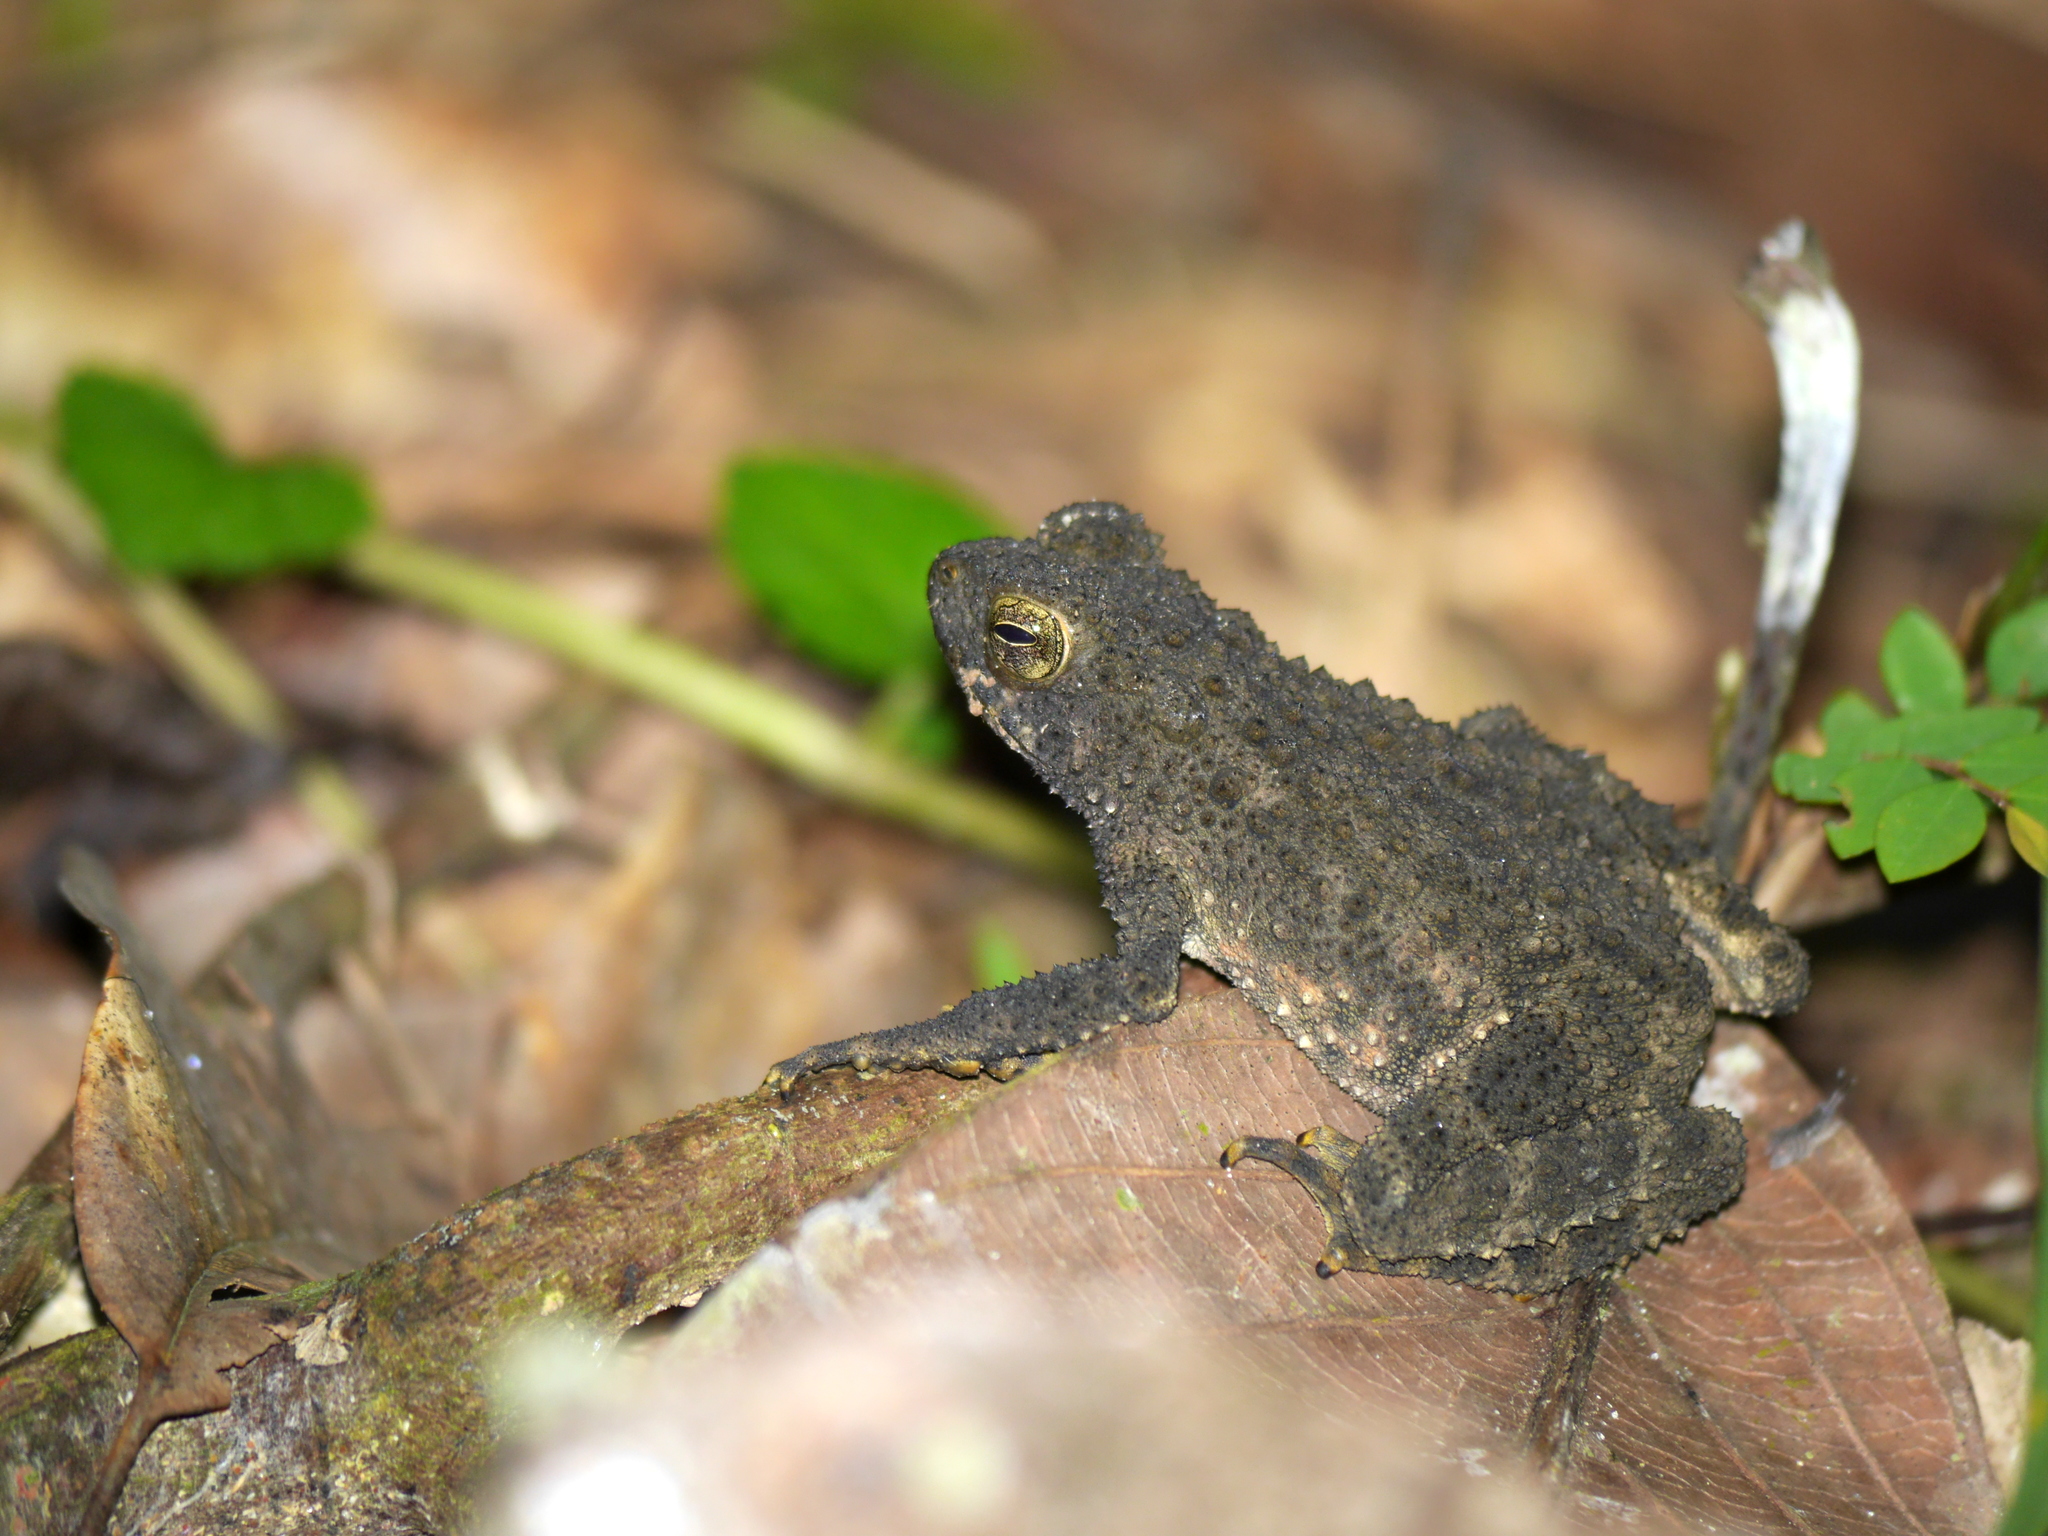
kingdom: Animalia
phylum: Chordata
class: Amphibia
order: Anura
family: Bufonidae
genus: Phrynoidis
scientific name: Phrynoidis asper
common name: Asian giant toad
